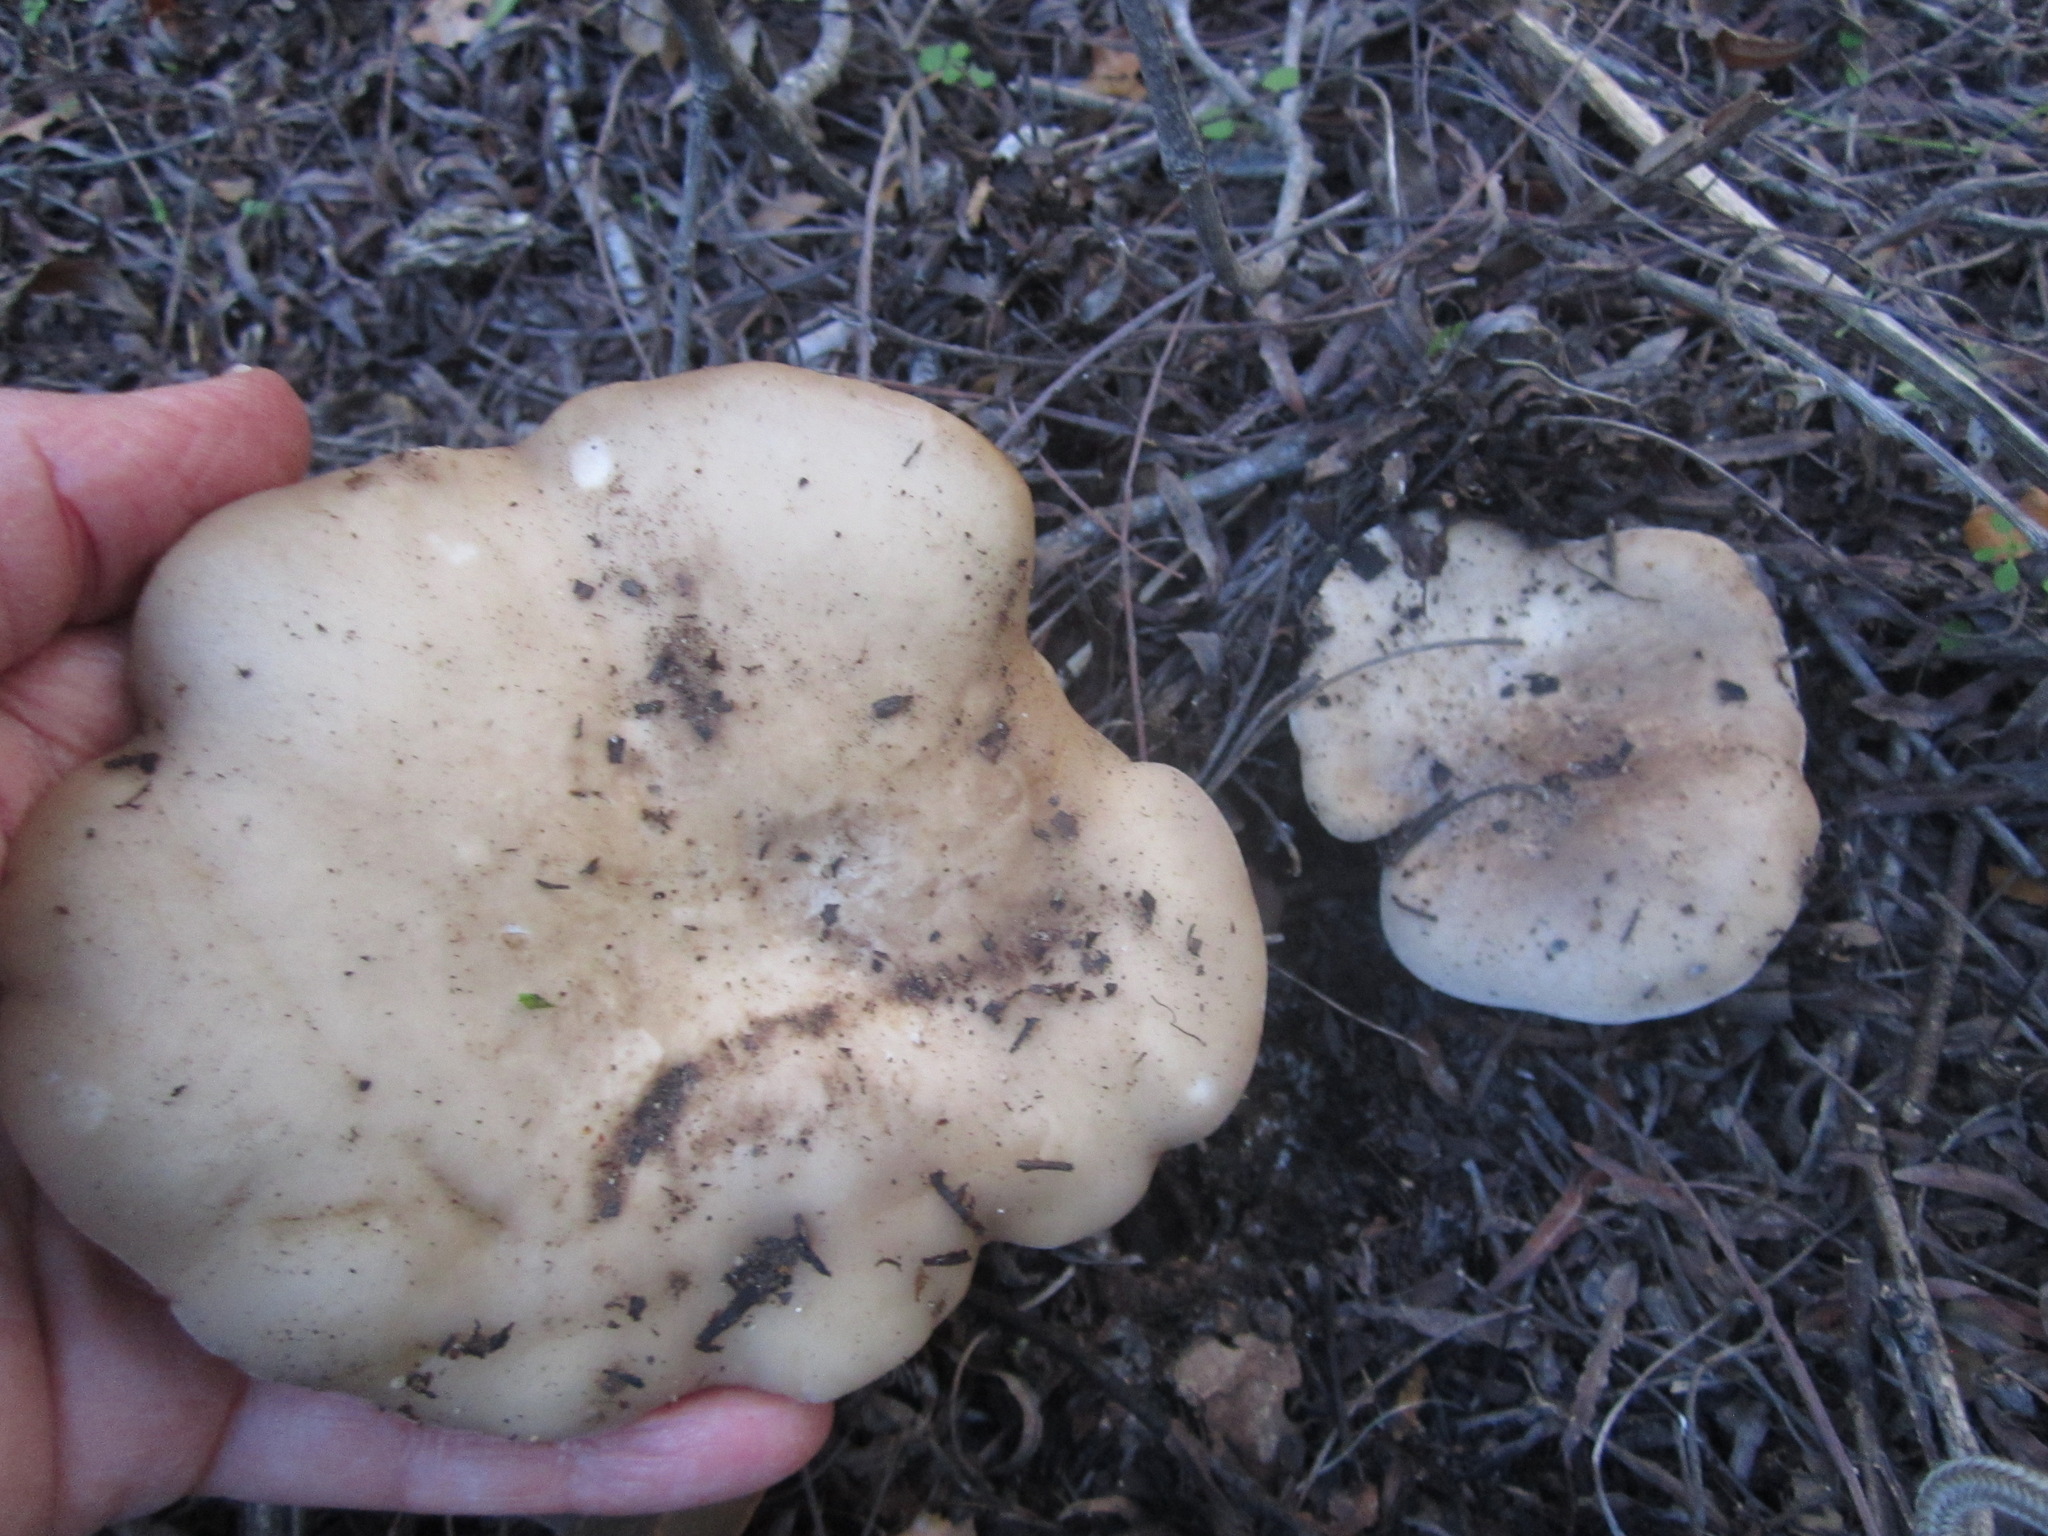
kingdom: Fungi
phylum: Basidiomycota
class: Agaricomycetes
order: Agaricales
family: Tricholomataceae
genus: Collybia
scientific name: Collybia
